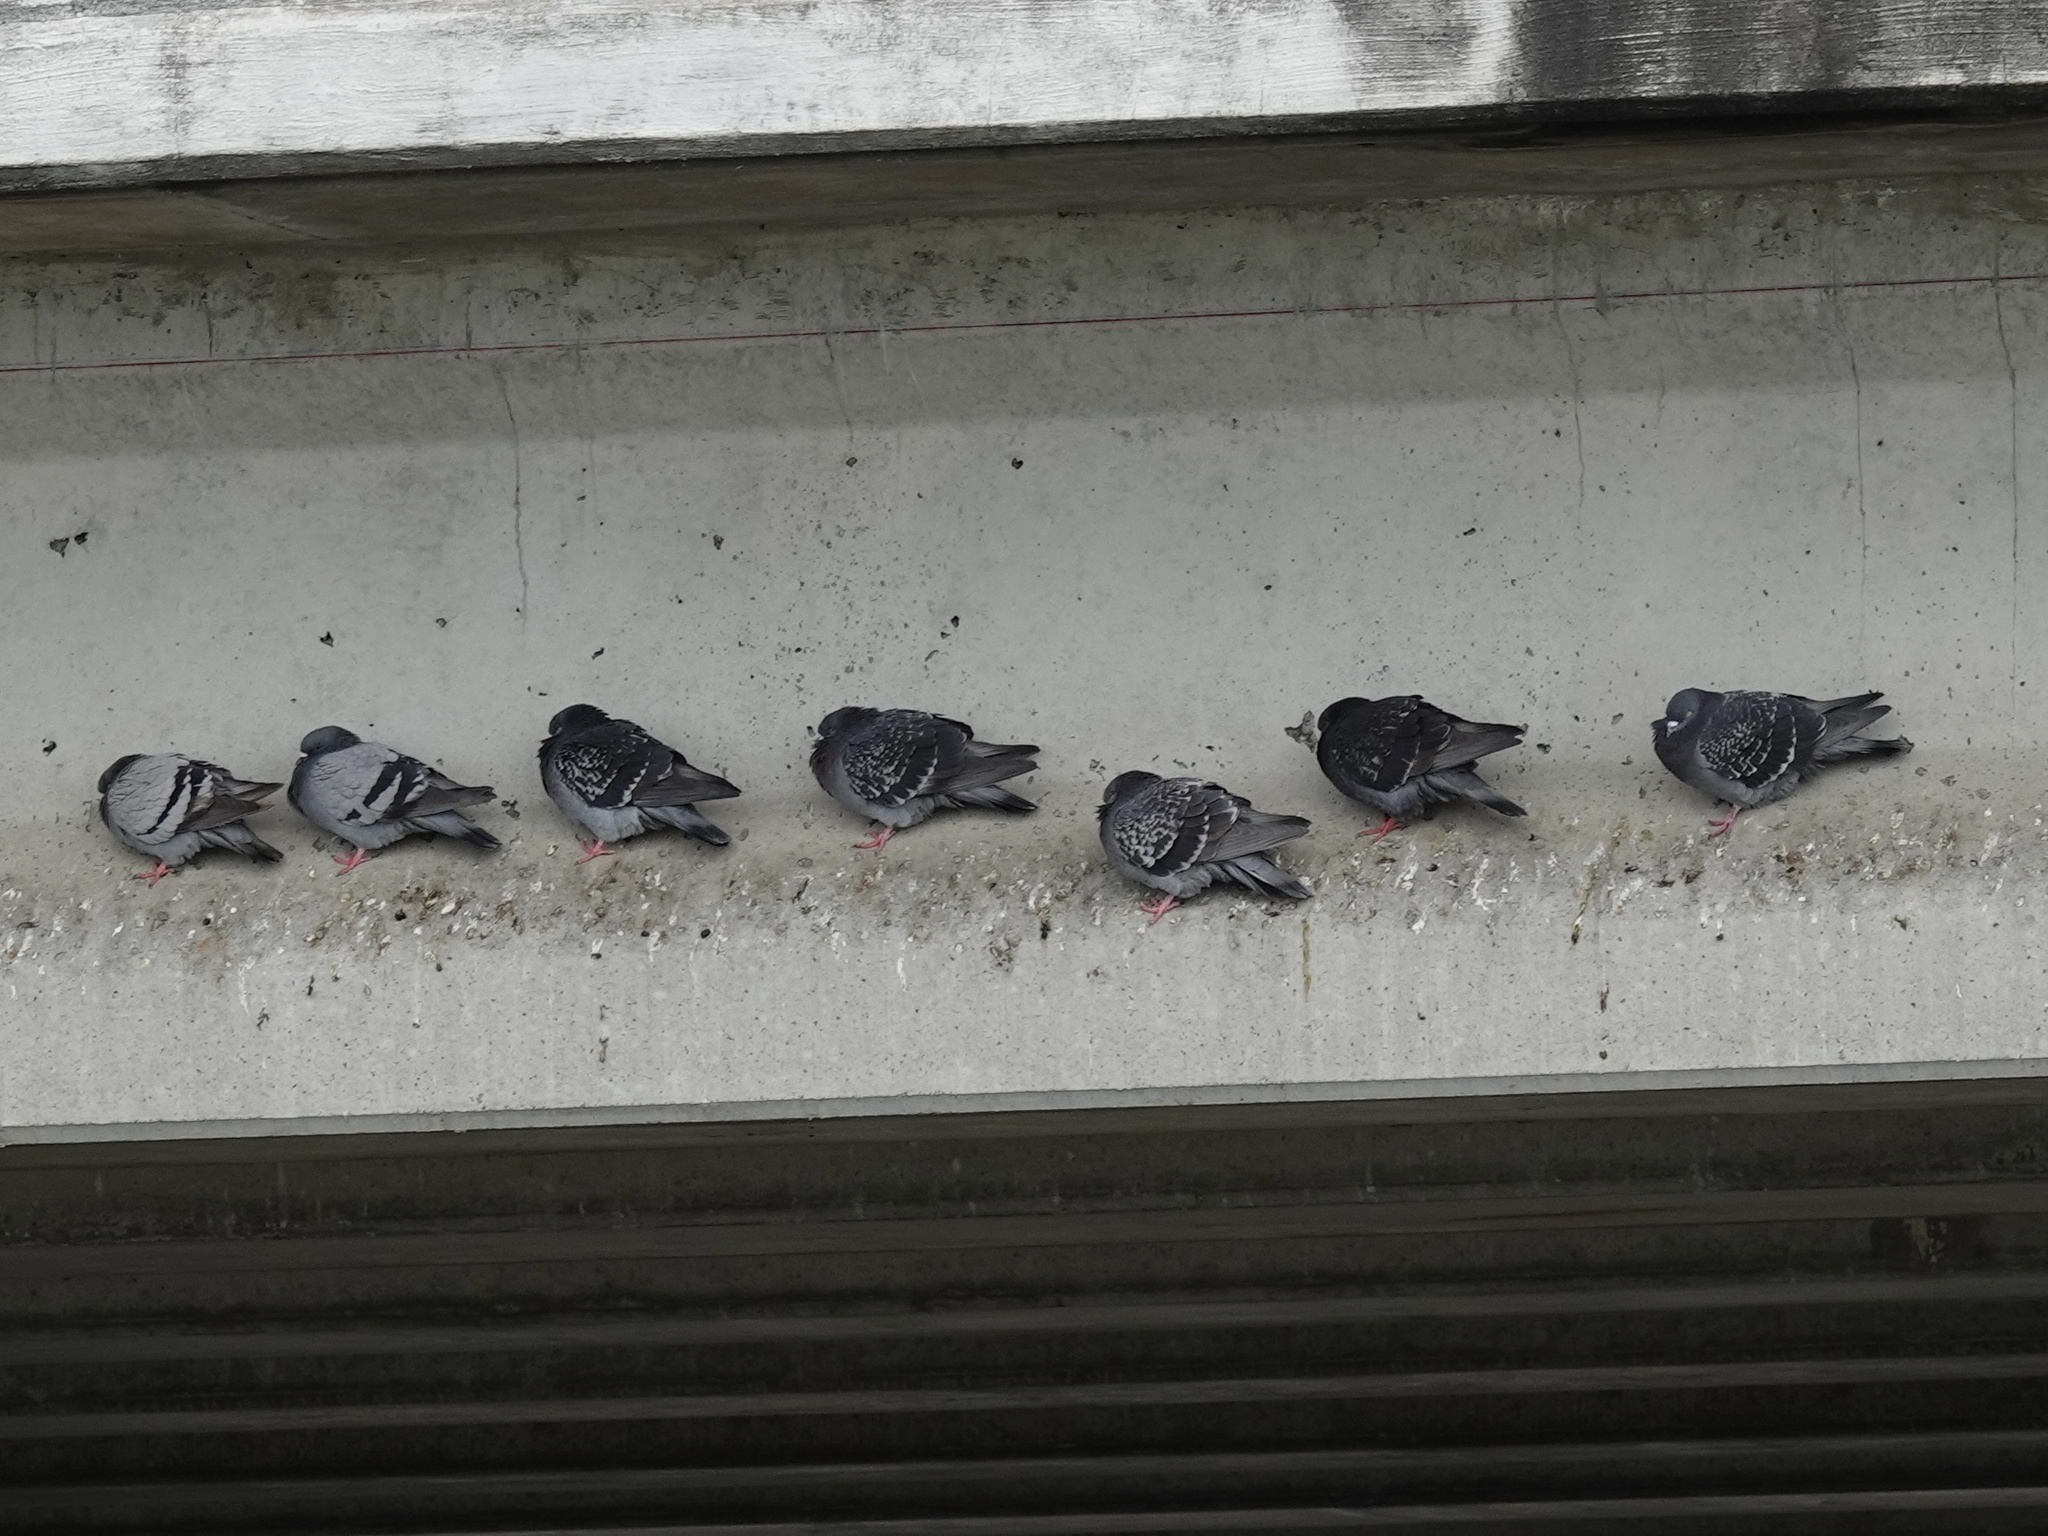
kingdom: Animalia
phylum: Chordata
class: Aves
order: Columbiformes
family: Columbidae
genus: Columba
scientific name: Columba livia
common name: Rock pigeon
